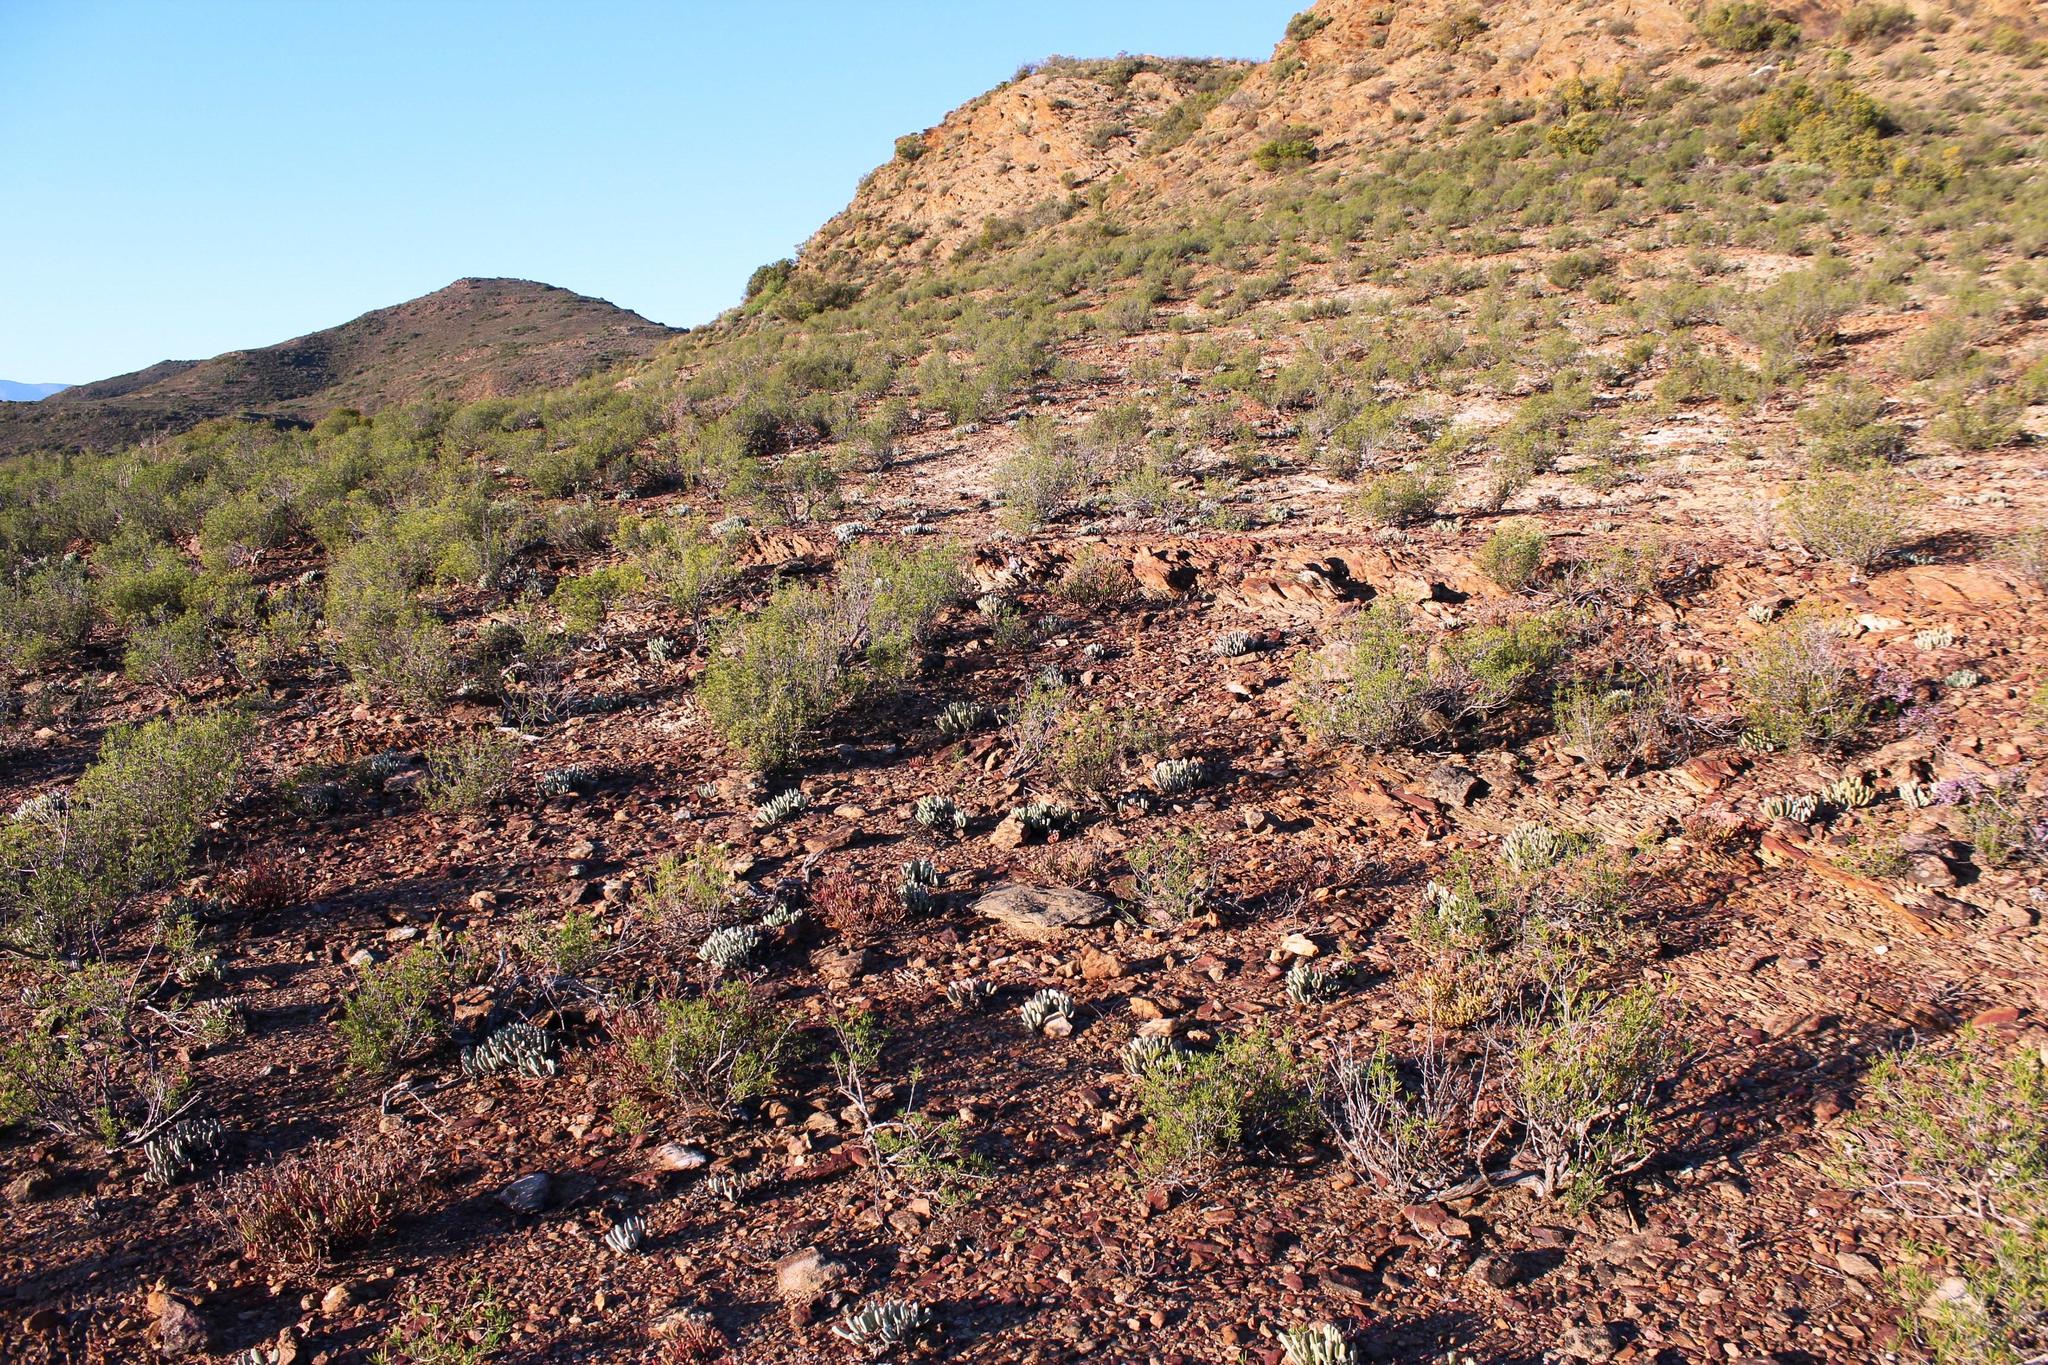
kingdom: Plantae
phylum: Tracheophyta
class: Magnoliopsida
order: Caryophyllales
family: Aizoaceae
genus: Brianhuntleya
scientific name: Brianhuntleya intrusa
